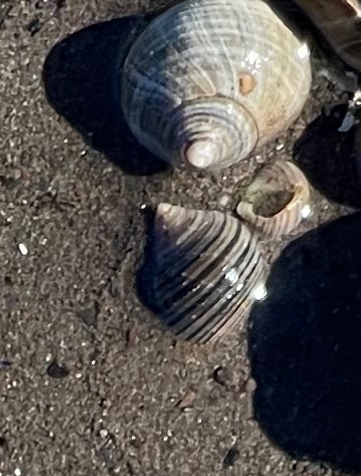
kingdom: Animalia
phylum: Mollusca
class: Gastropoda
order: Littorinimorpha
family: Littorinidae
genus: Littorina
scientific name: Littorina littorea
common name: Common periwinkle
